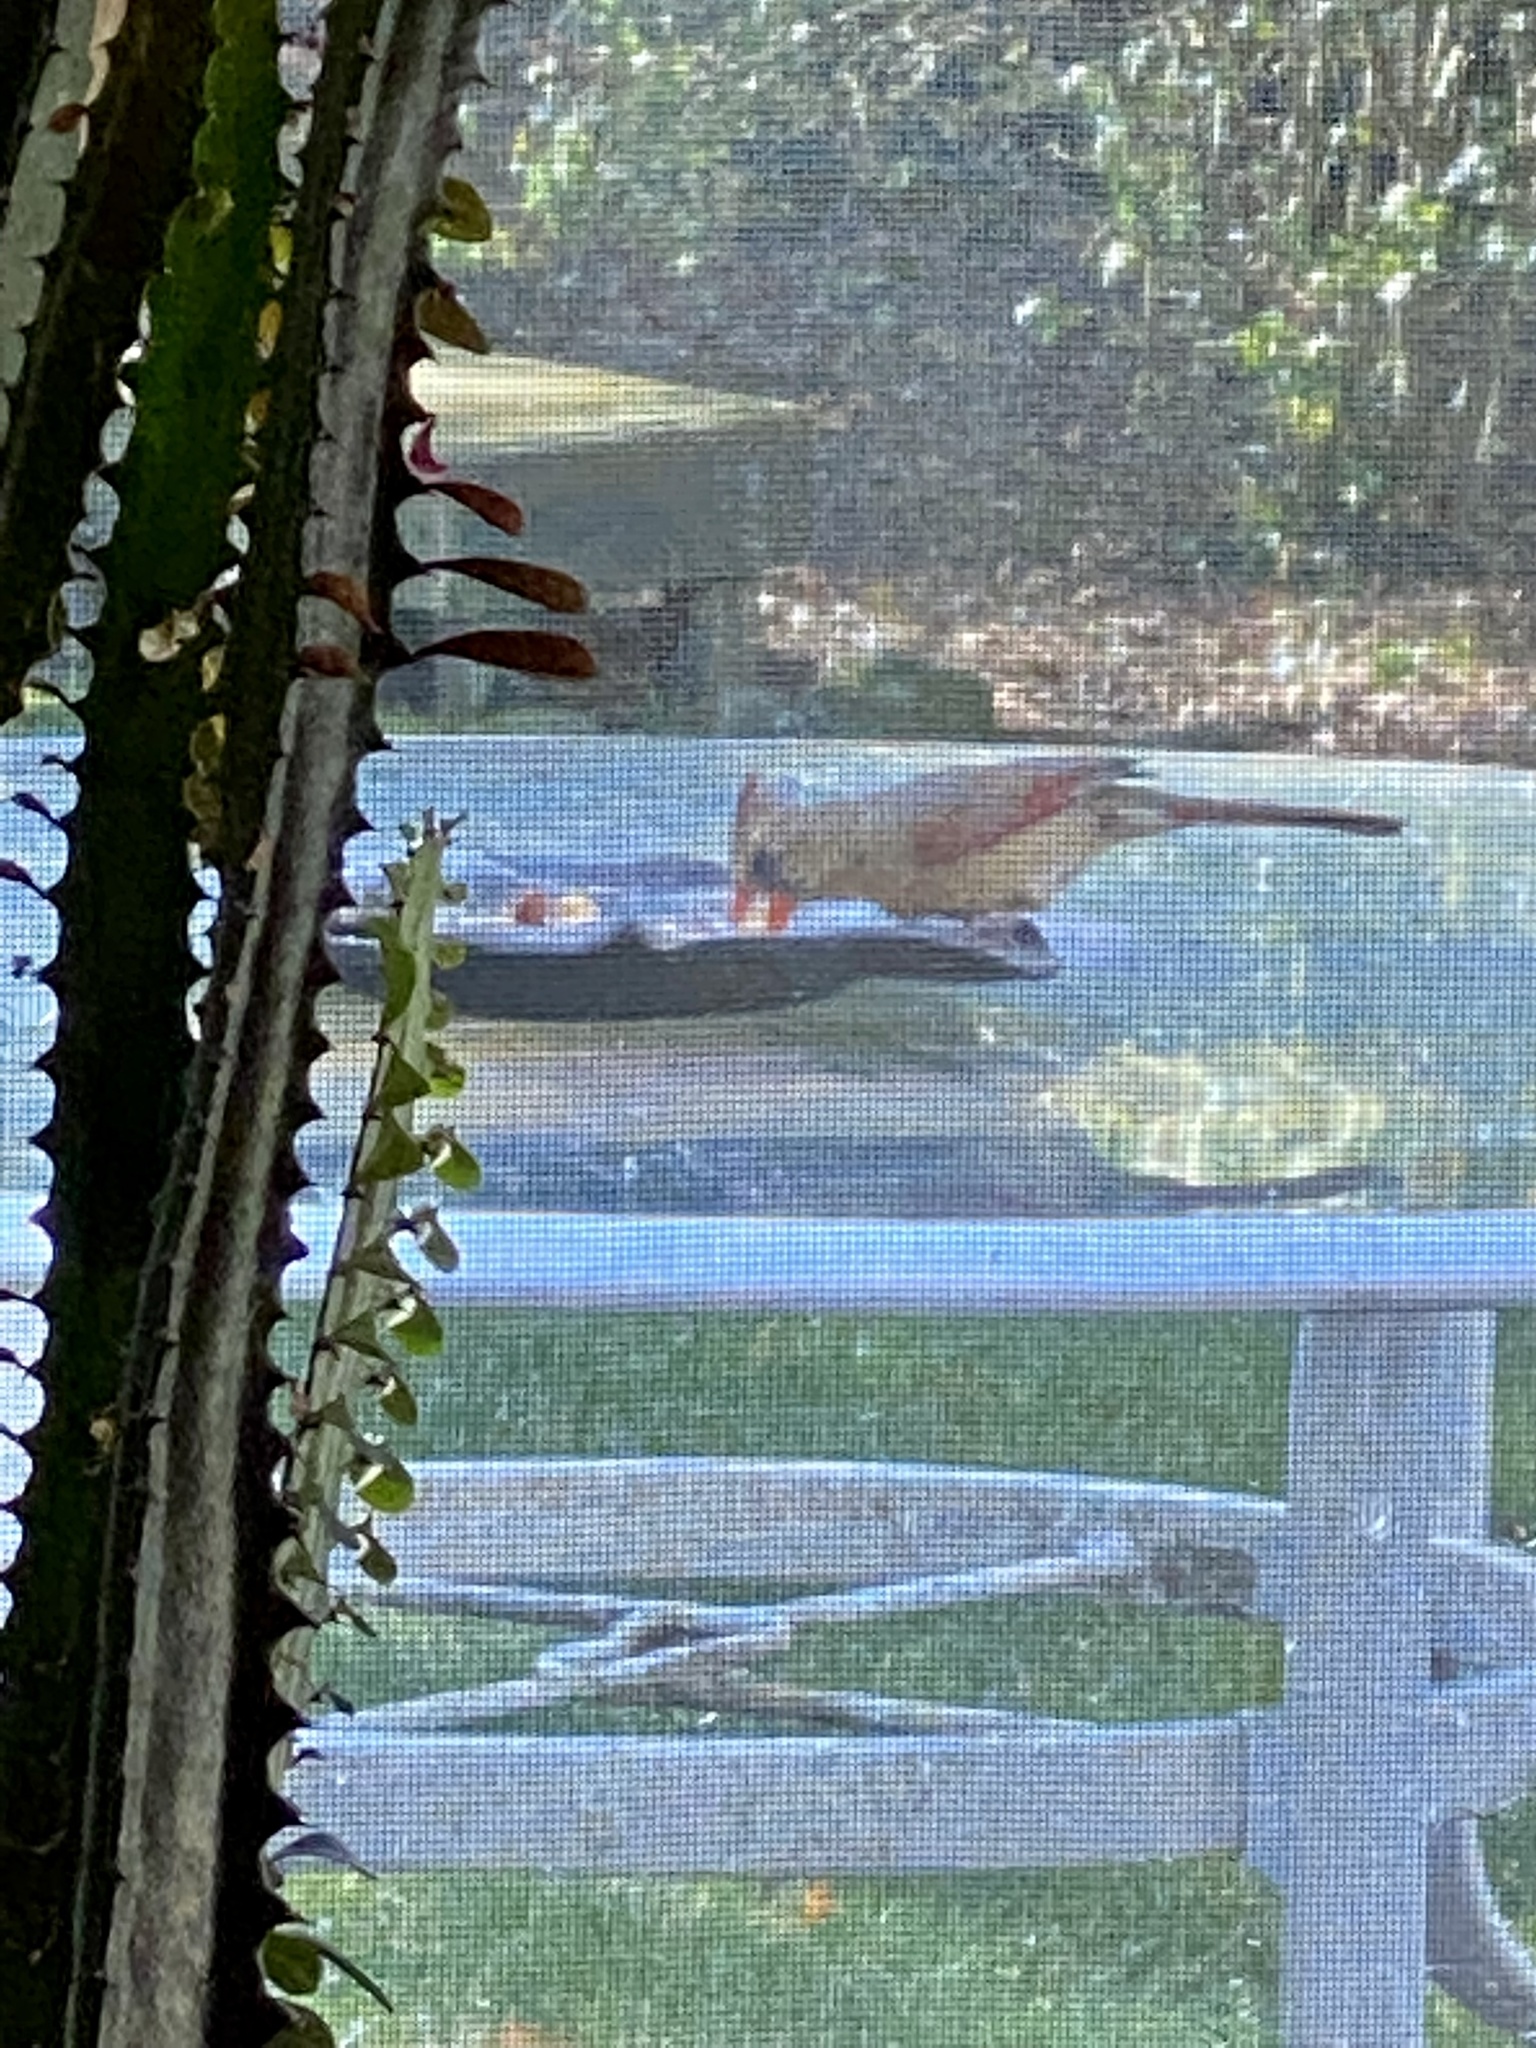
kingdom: Animalia
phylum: Chordata
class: Aves
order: Passeriformes
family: Cardinalidae
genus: Cardinalis
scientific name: Cardinalis cardinalis
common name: Northern cardinal
